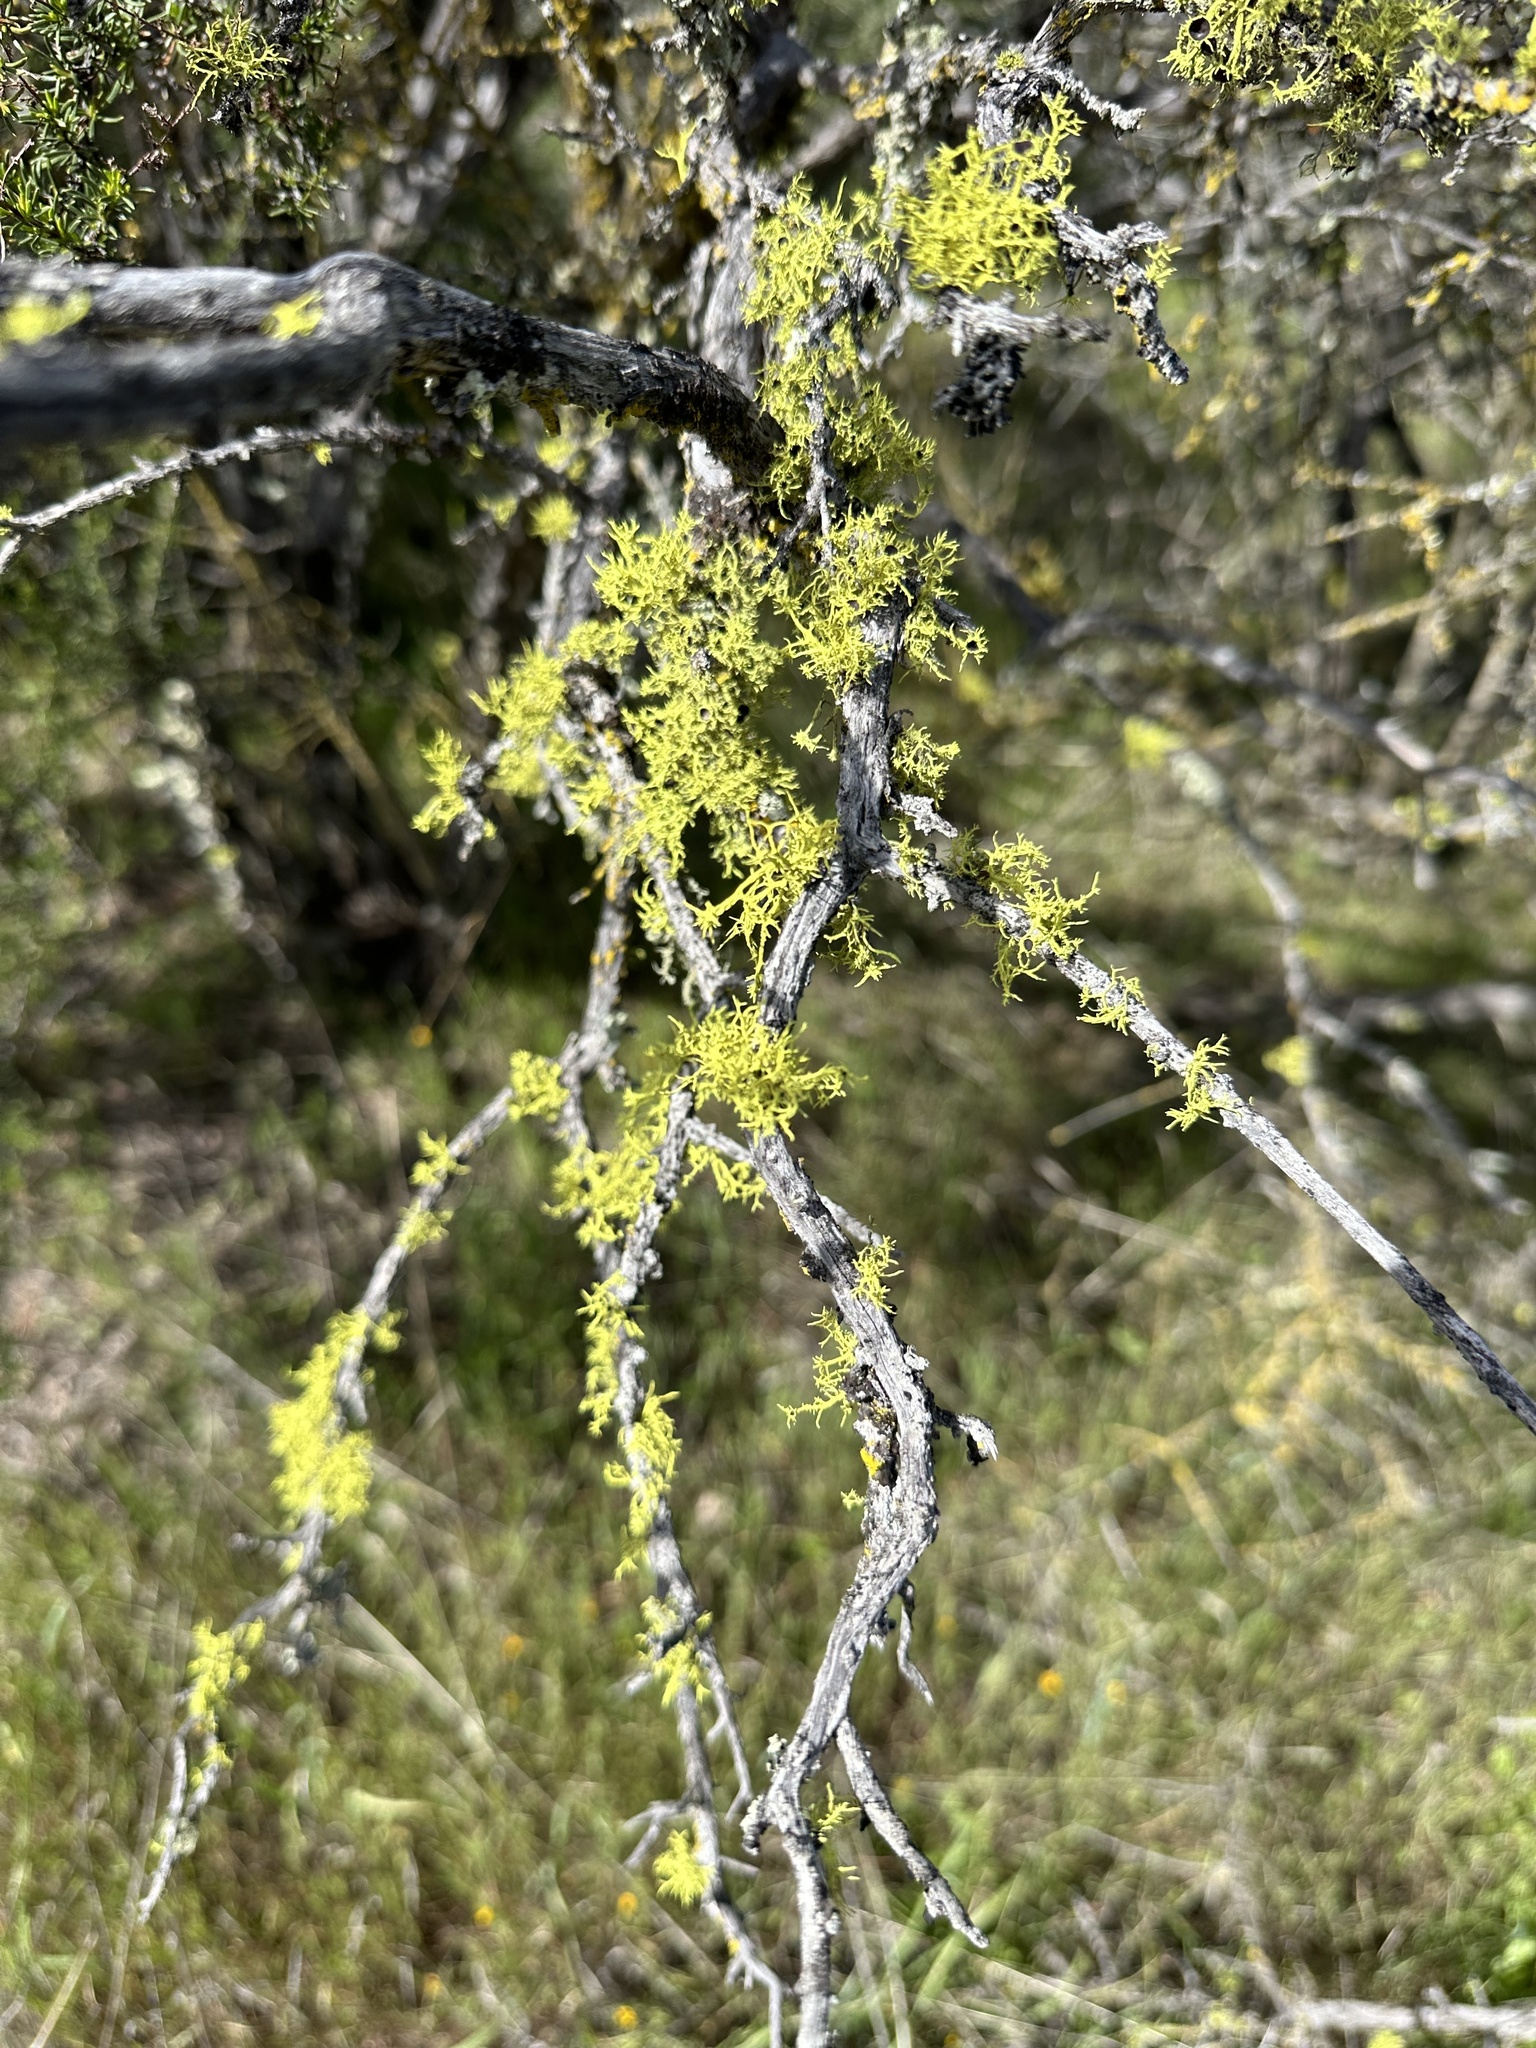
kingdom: Fungi
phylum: Ascomycota
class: Lecanoromycetes
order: Lecanorales
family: Parmeliaceae
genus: Letharia
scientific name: Letharia columbiana
